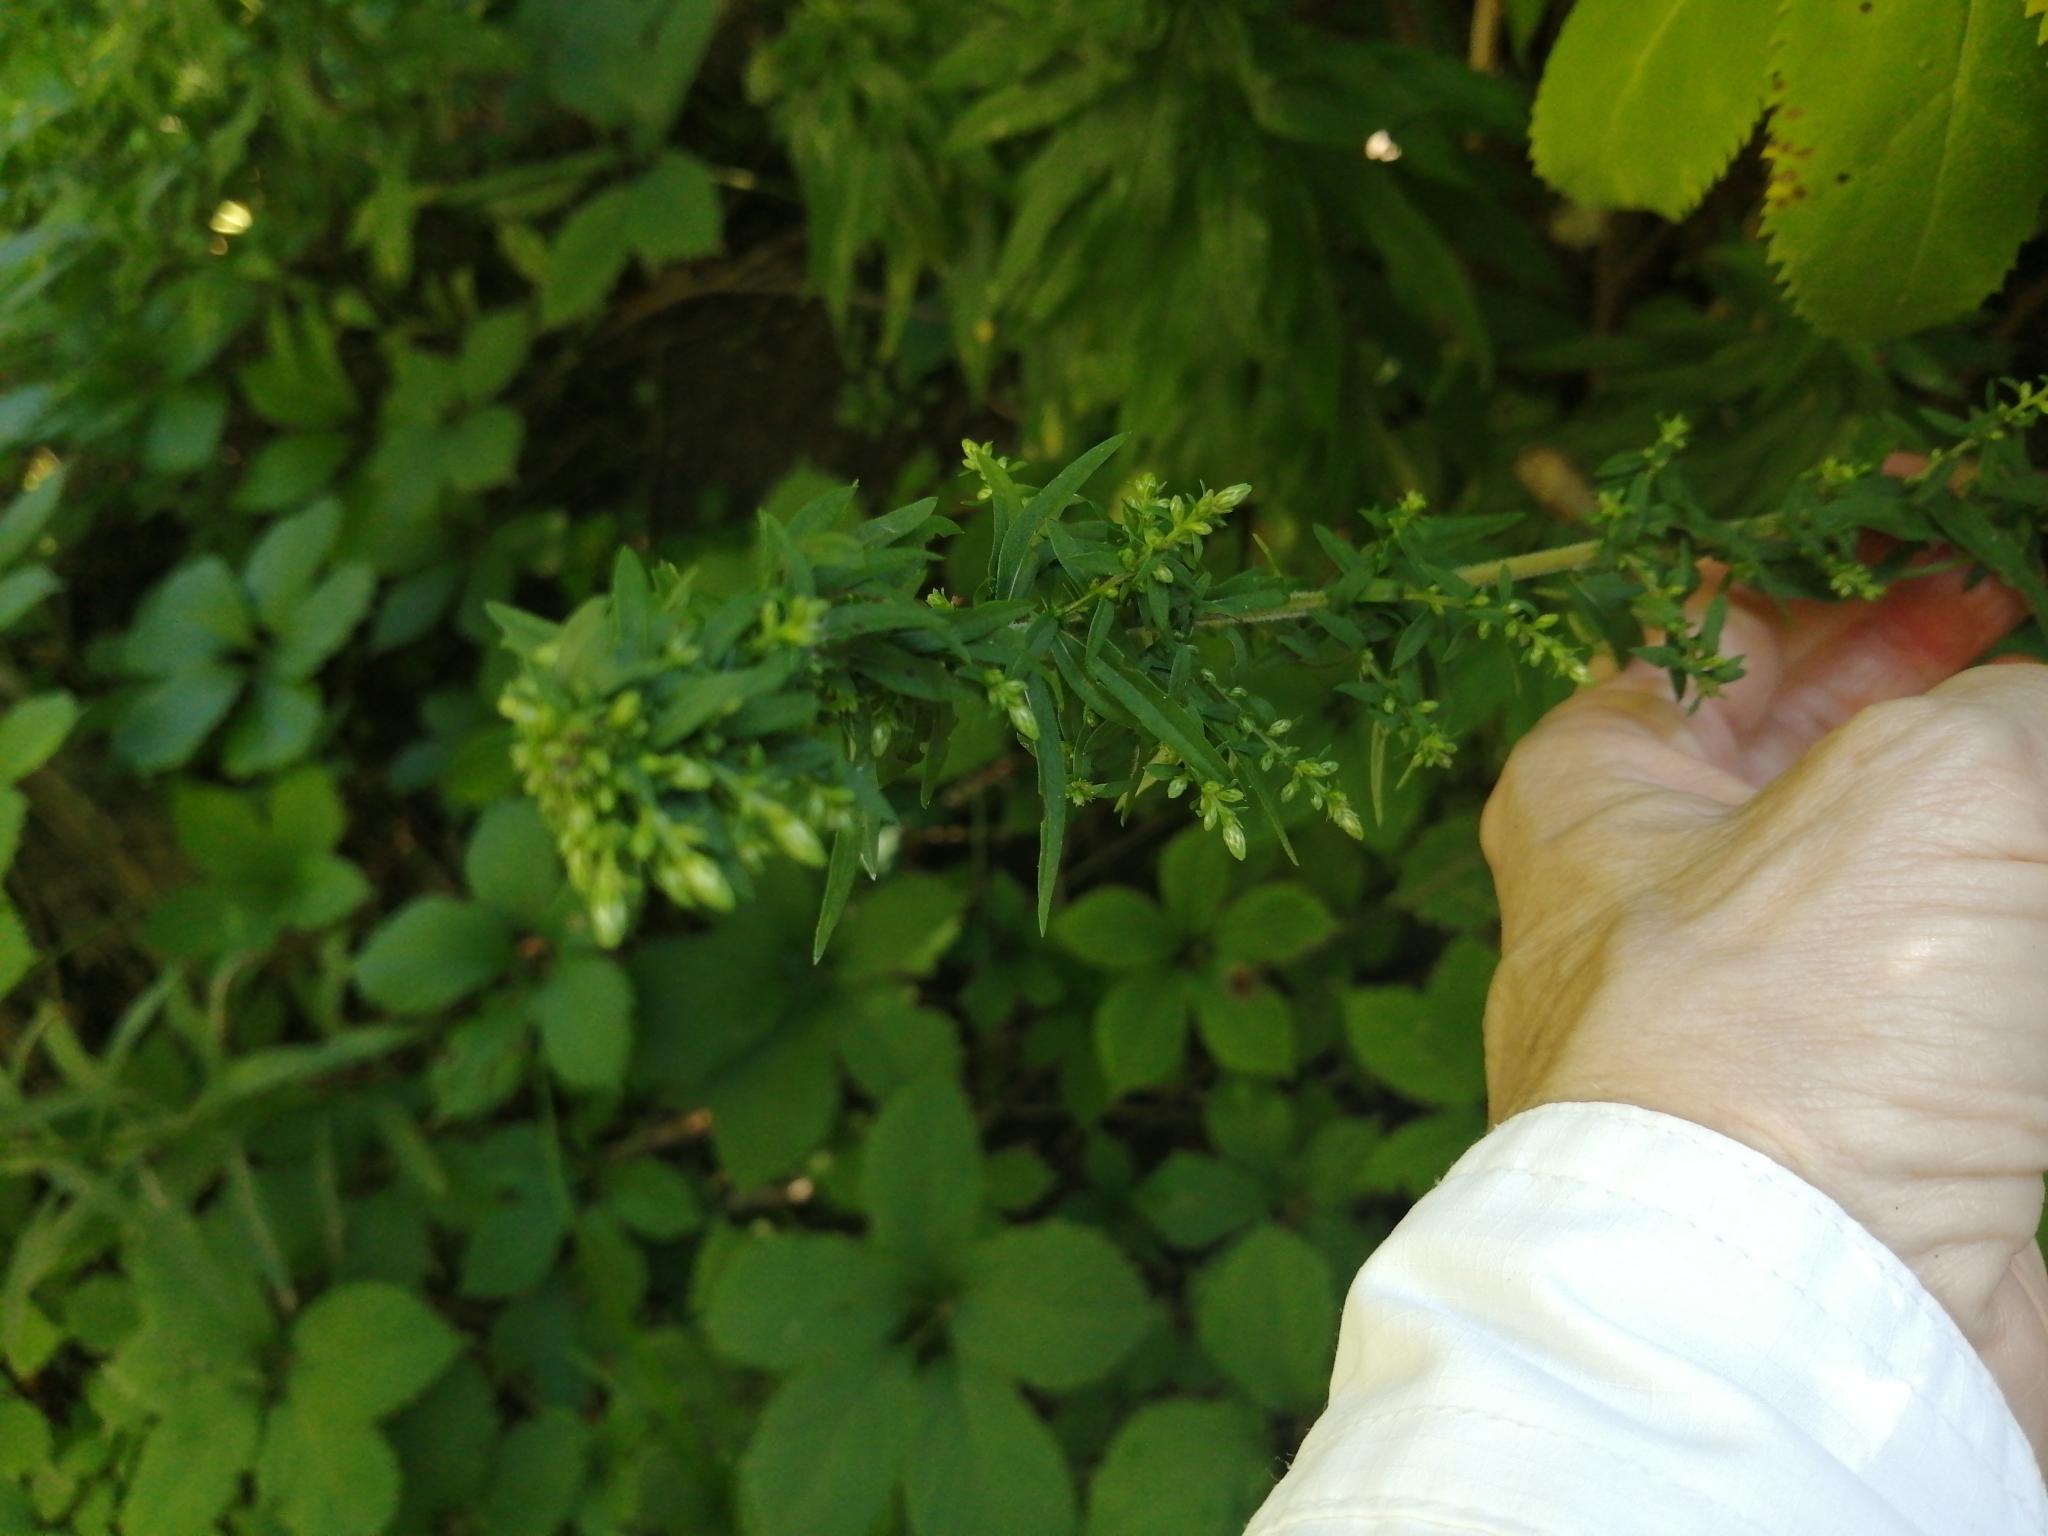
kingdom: Plantae
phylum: Tracheophyta
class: Magnoliopsida
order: Asterales
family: Asteraceae
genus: Symphyotrichum
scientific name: Symphyotrichum lateriflorum
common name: Calico aster
